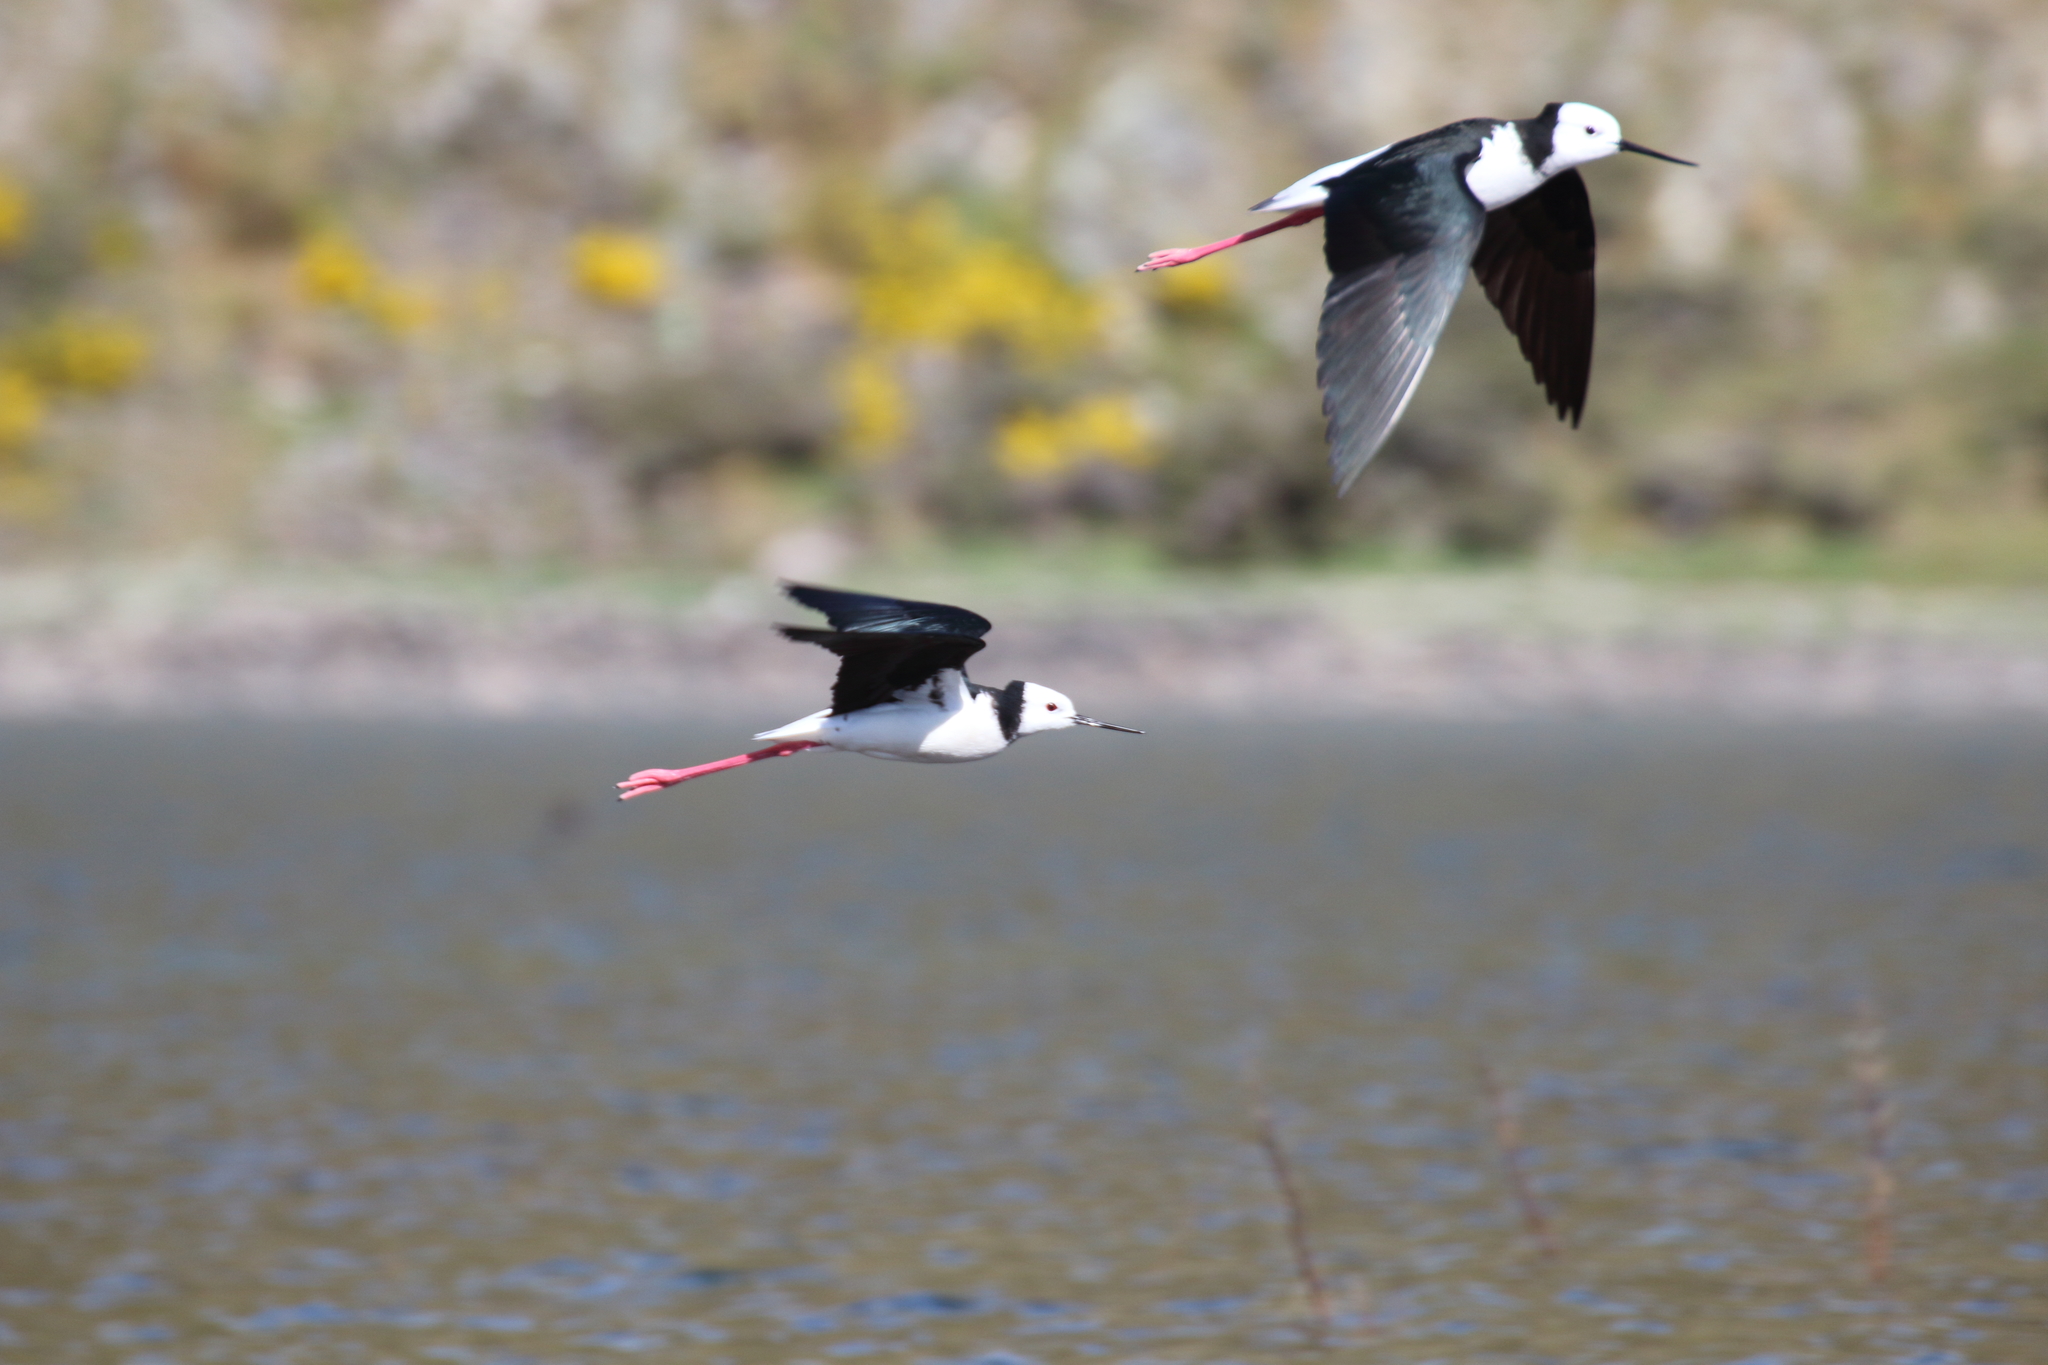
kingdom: Animalia
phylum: Chordata
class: Aves
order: Charadriiformes
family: Recurvirostridae
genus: Himantopus
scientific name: Himantopus leucocephalus
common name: White-headed stilt
